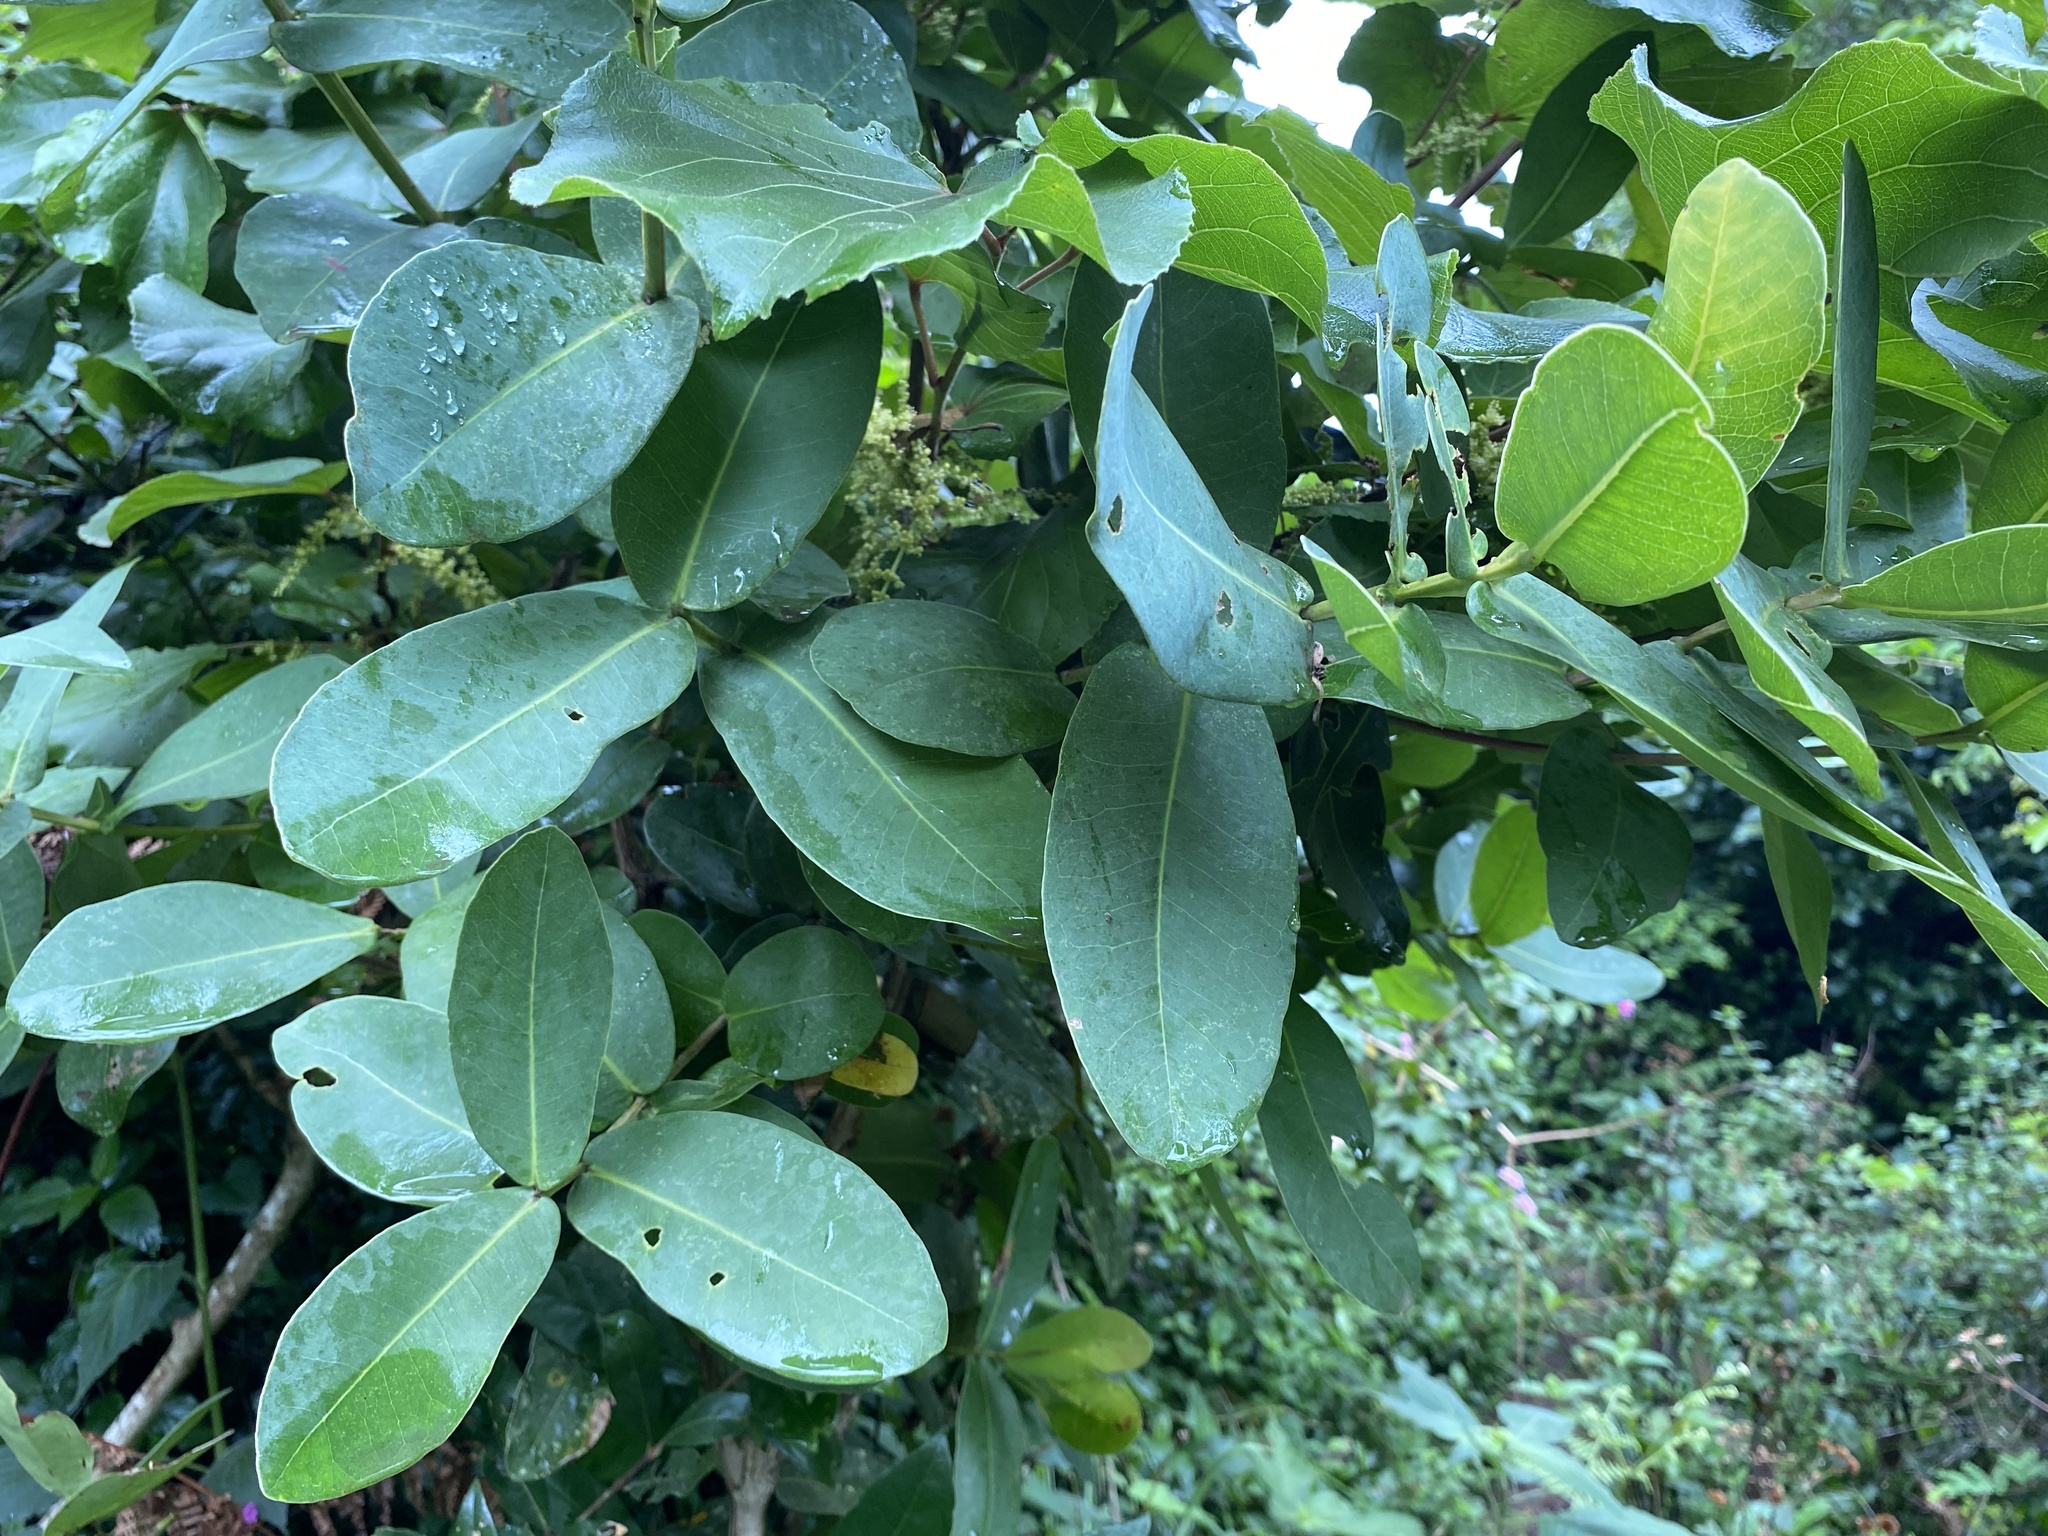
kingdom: Plantae
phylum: Tracheophyta
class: Magnoliopsida
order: Myrtales
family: Myrtaceae
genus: Syzygium
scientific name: Syzygium cordatum
